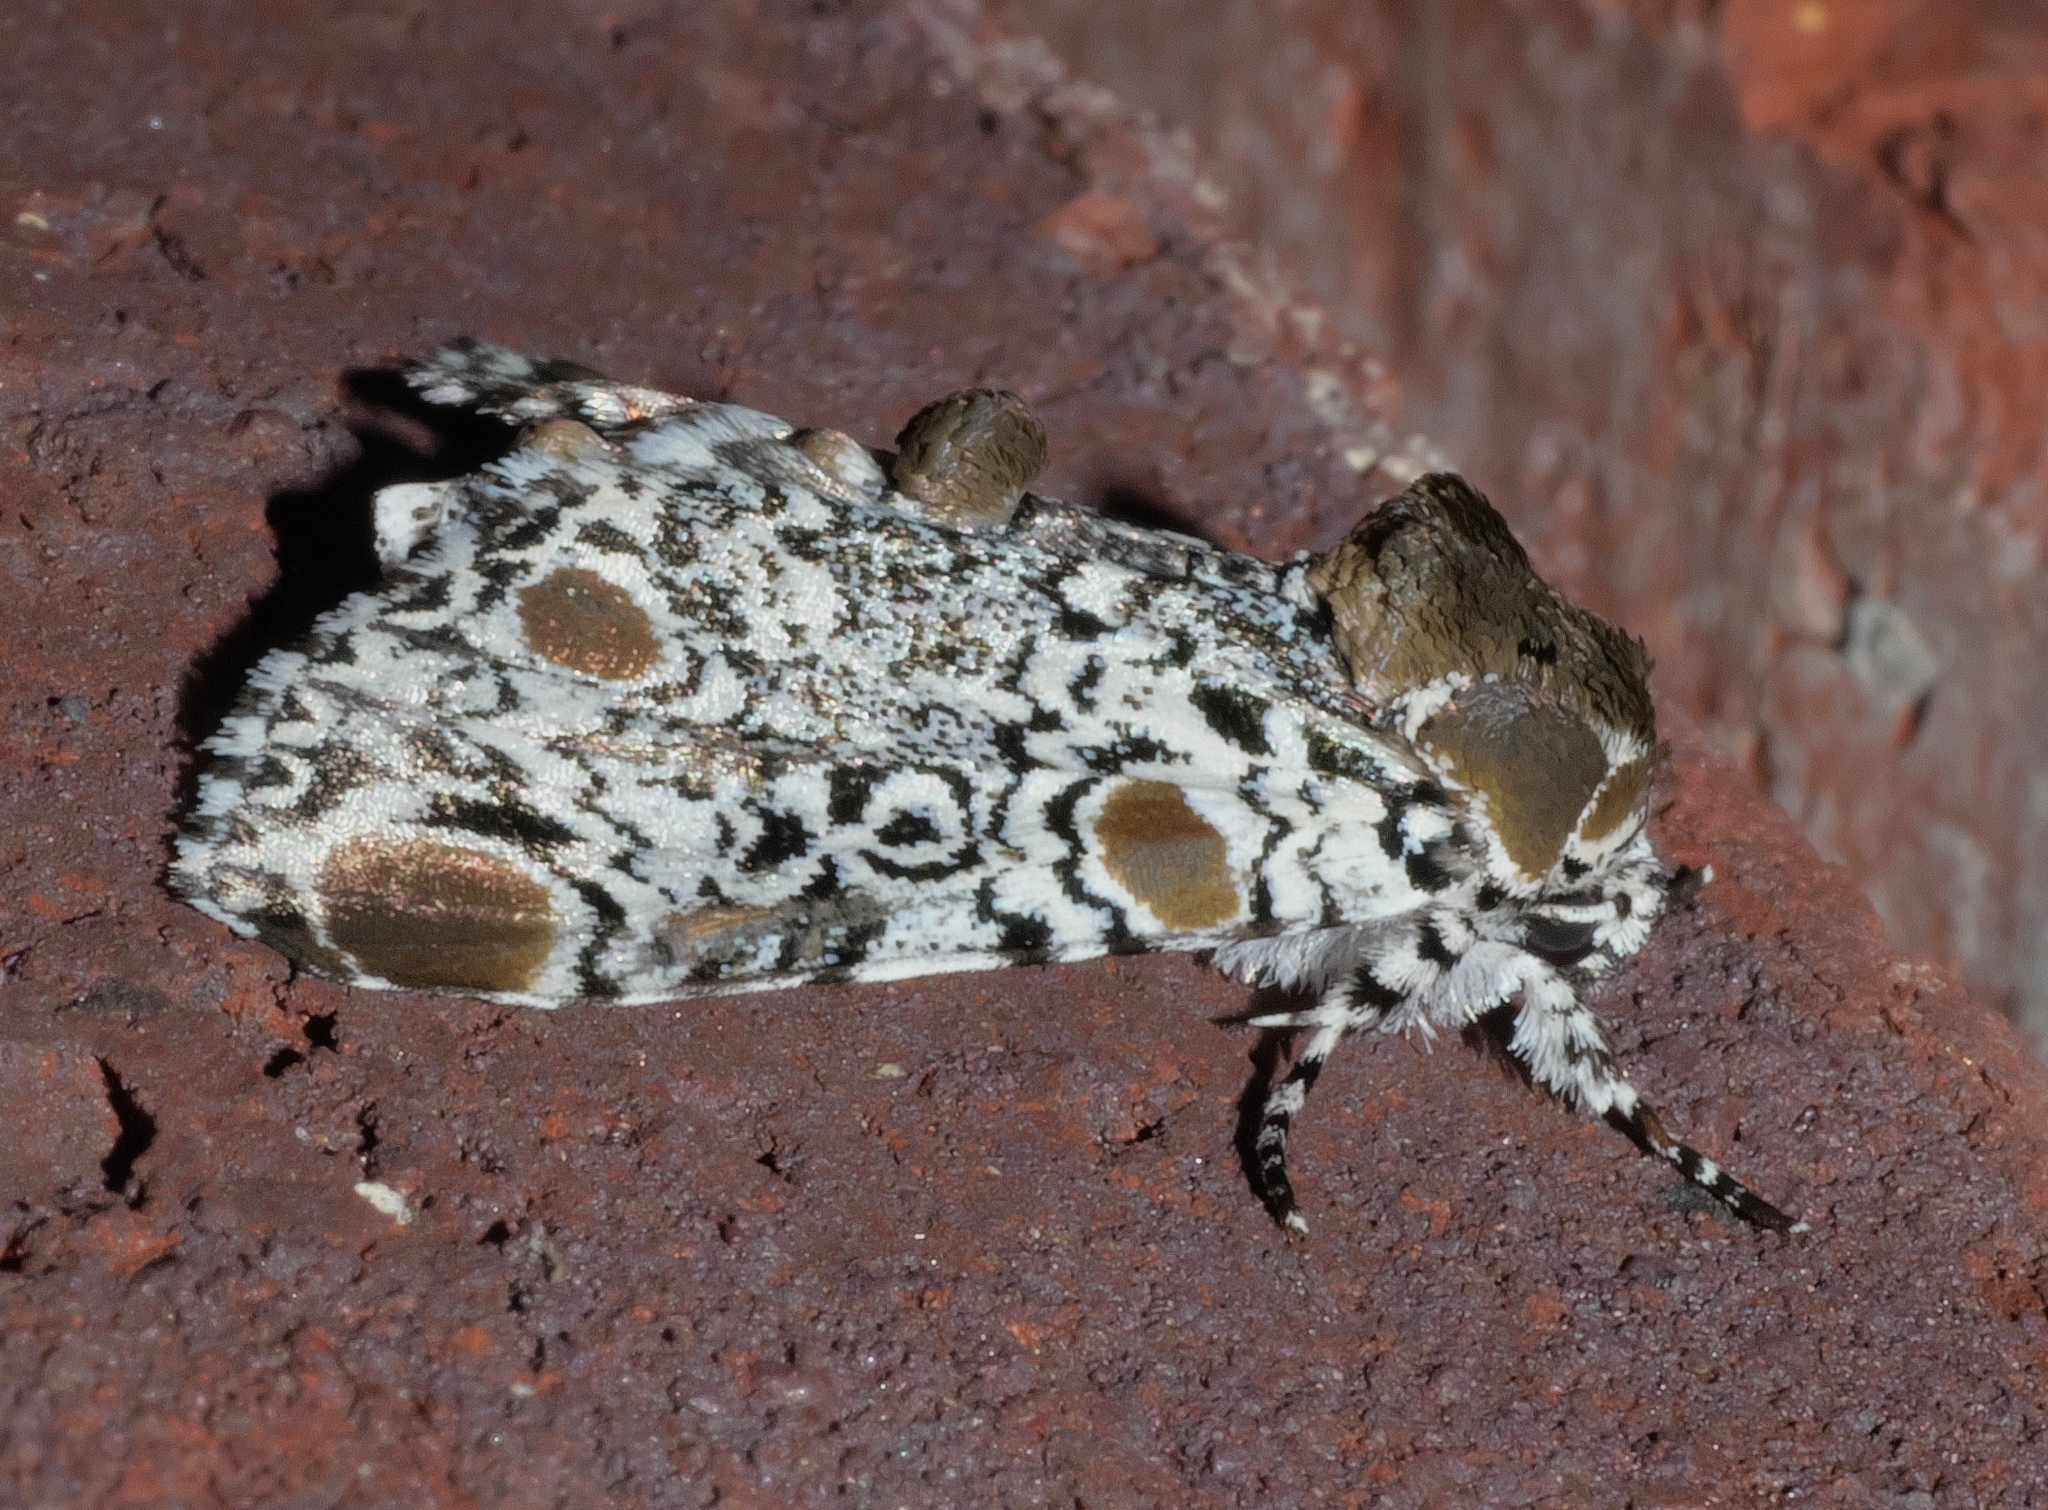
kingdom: Animalia
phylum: Arthropoda
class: Insecta
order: Lepidoptera
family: Noctuidae
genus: Harrisimemna
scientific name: Harrisimemna trisignata
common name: Harris threespot
